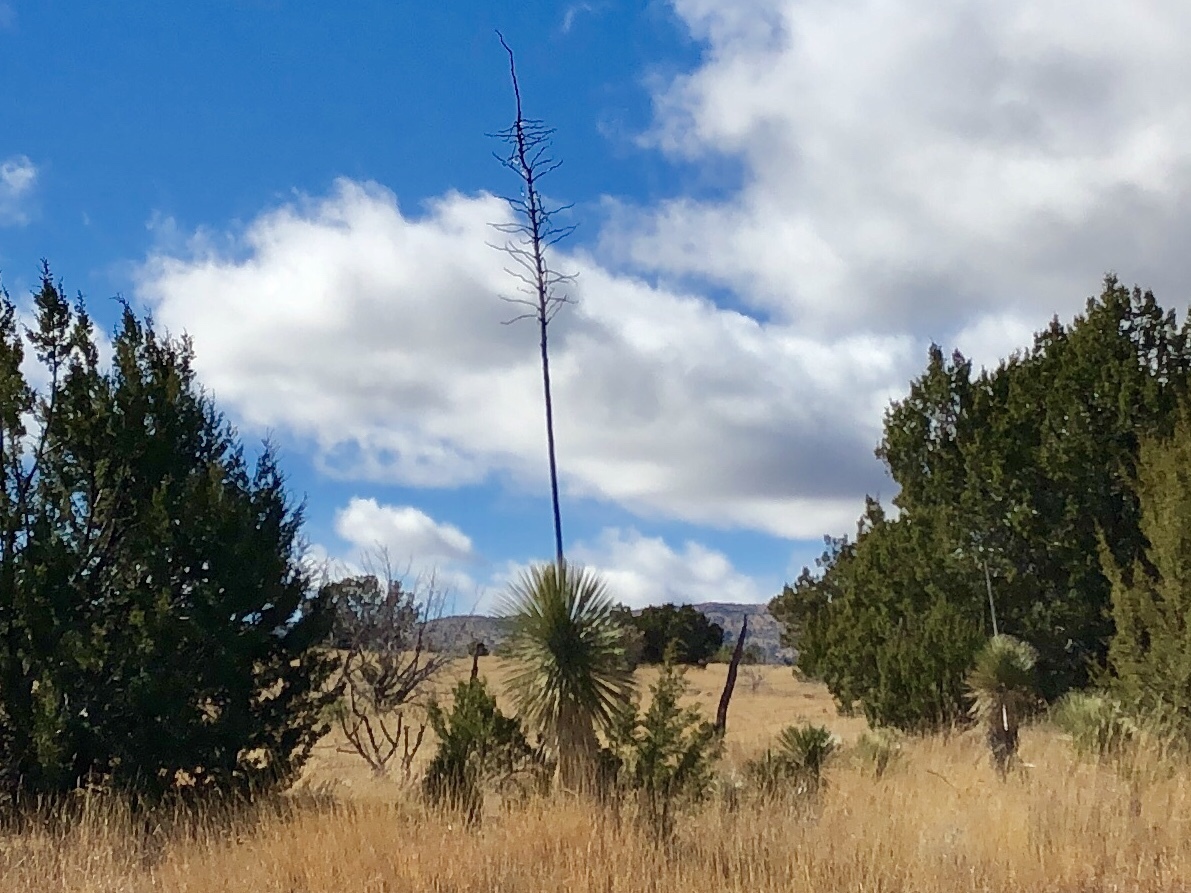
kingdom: Plantae
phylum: Tracheophyta
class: Liliopsida
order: Asparagales
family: Asparagaceae
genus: Yucca
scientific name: Yucca elata
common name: Palmella
